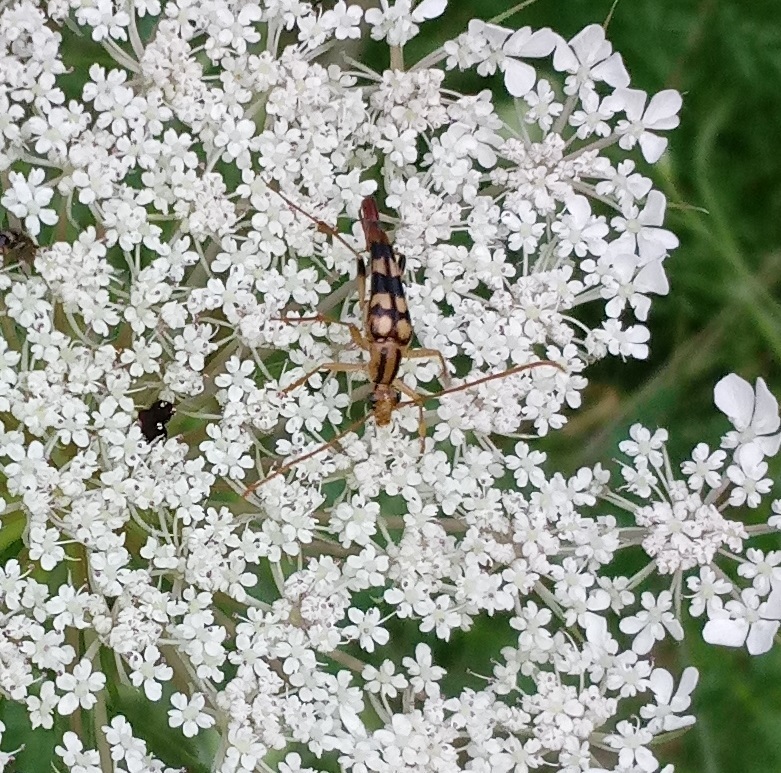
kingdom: Animalia
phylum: Arthropoda
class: Insecta
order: Coleoptera
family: Cerambycidae
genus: Strangalia
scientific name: Strangalia luteicornis
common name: Yellow-horned flower longhorn beetle
